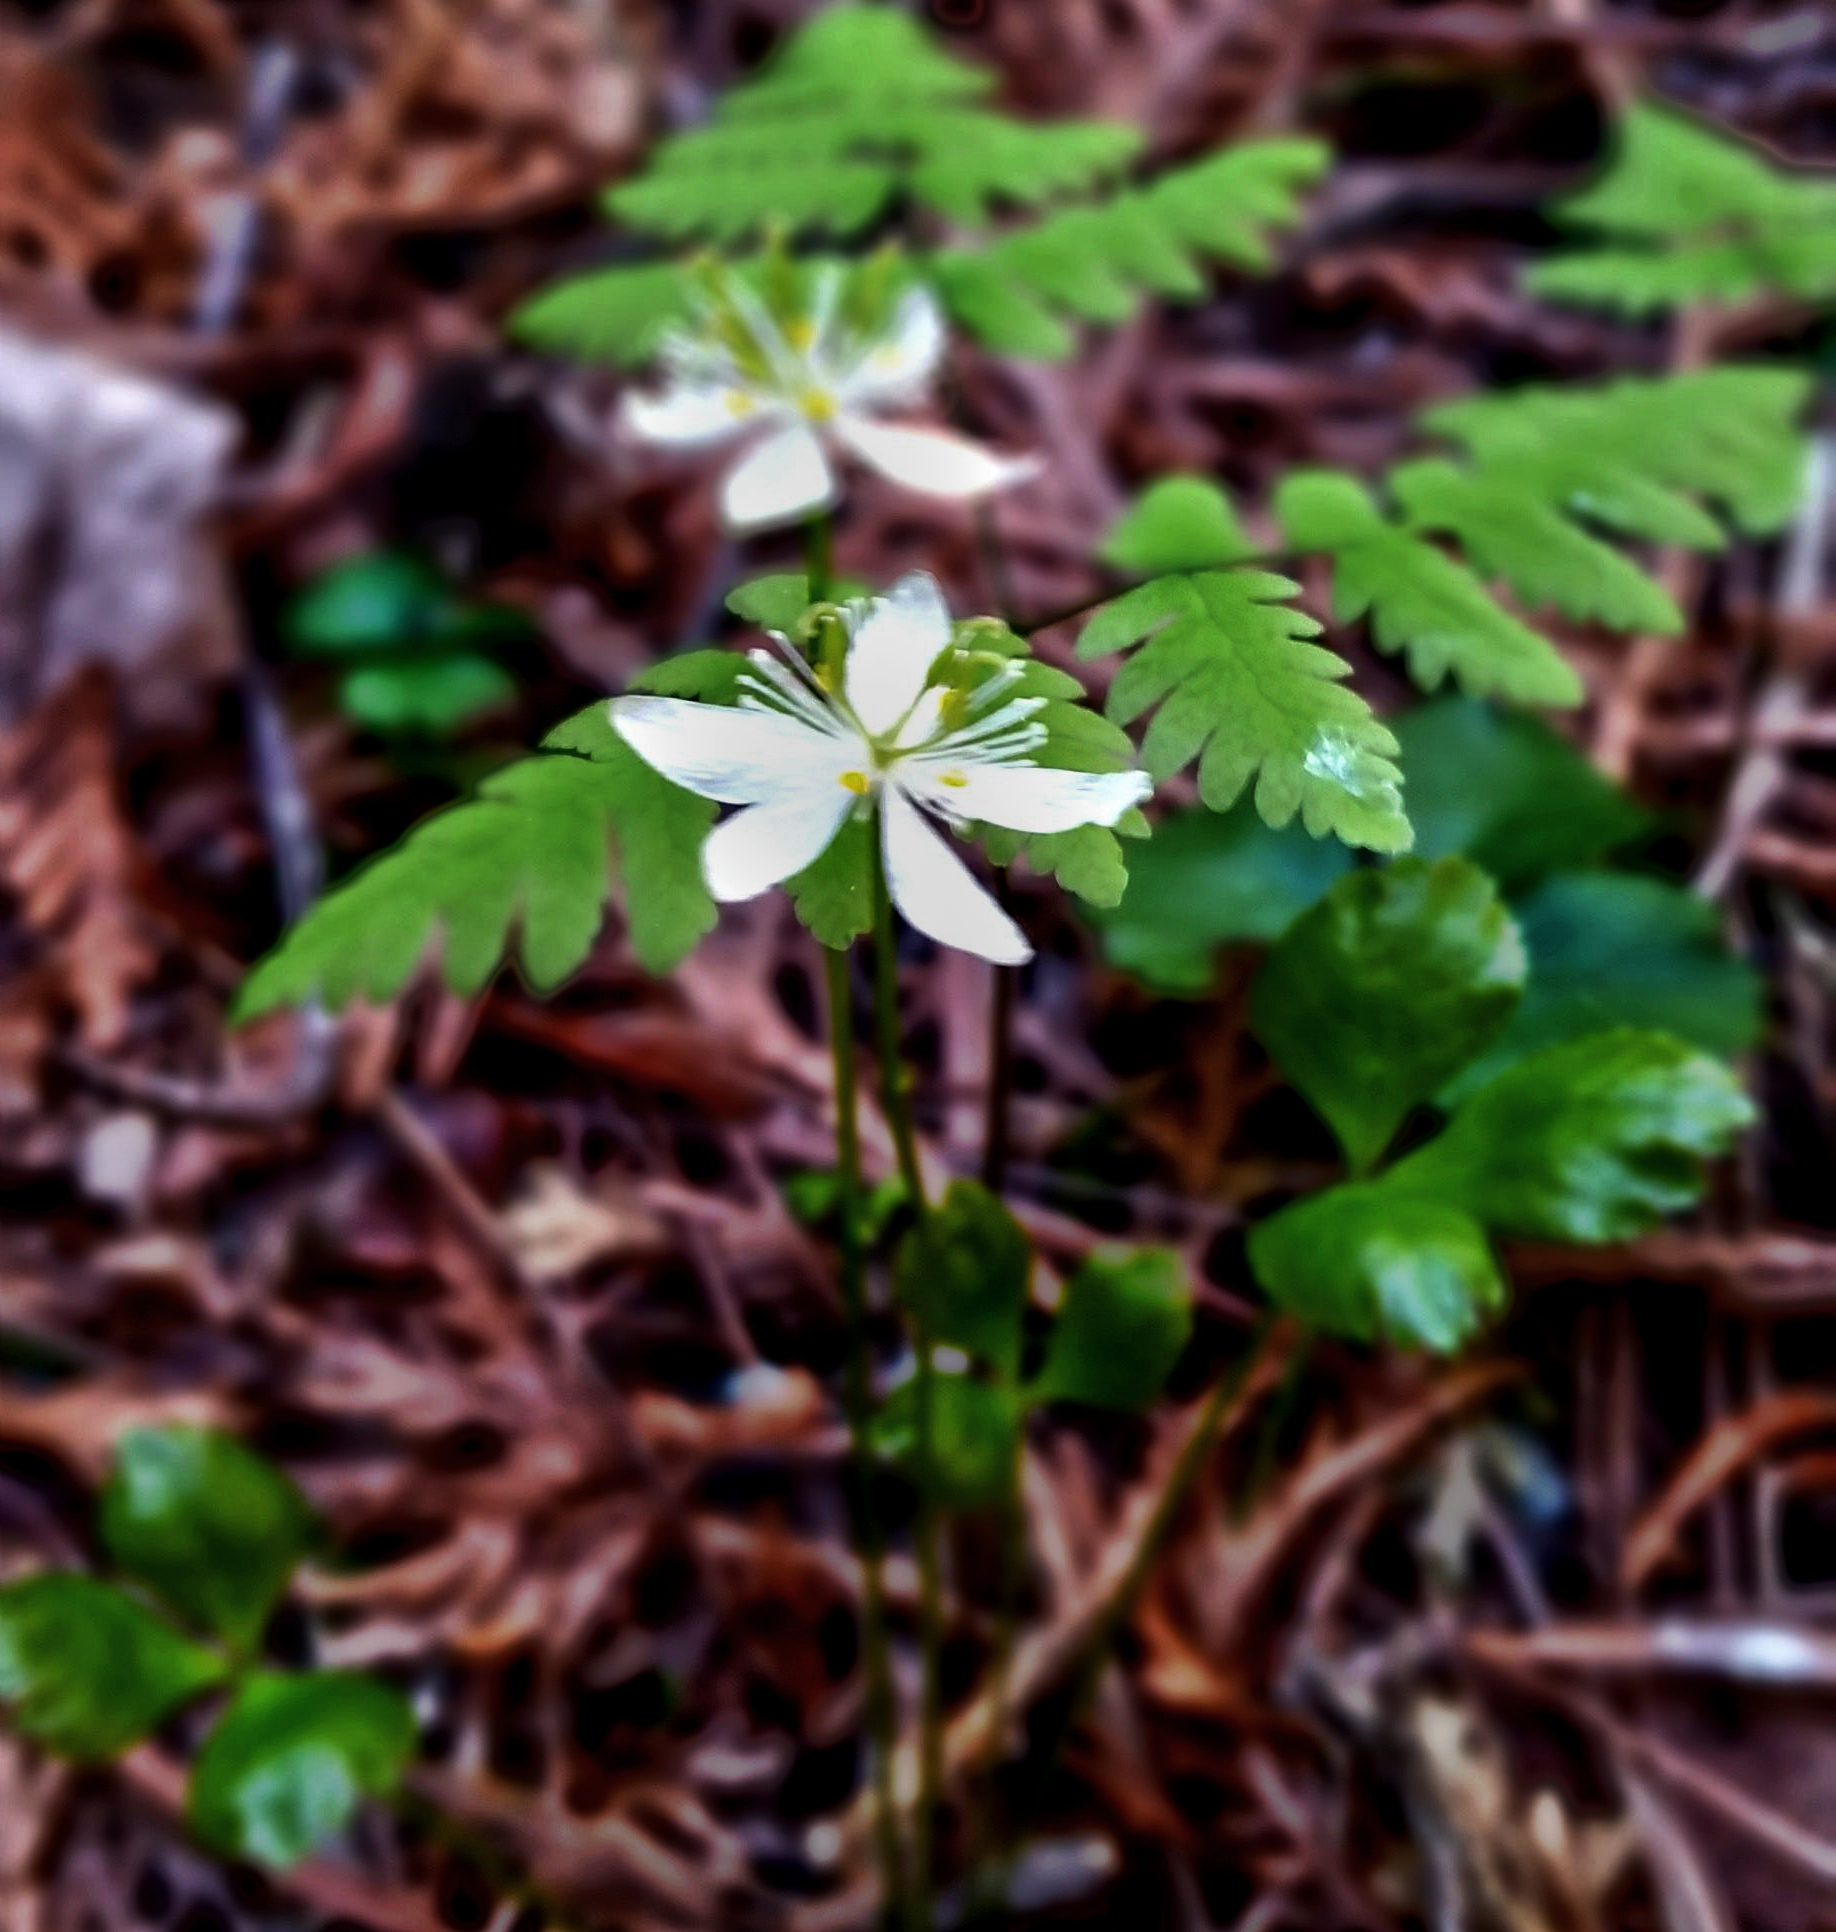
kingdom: Plantae
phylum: Tracheophyta
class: Magnoliopsida
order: Ranunculales
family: Ranunculaceae
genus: Coptis
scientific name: Coptis trifolia
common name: Canker-root
